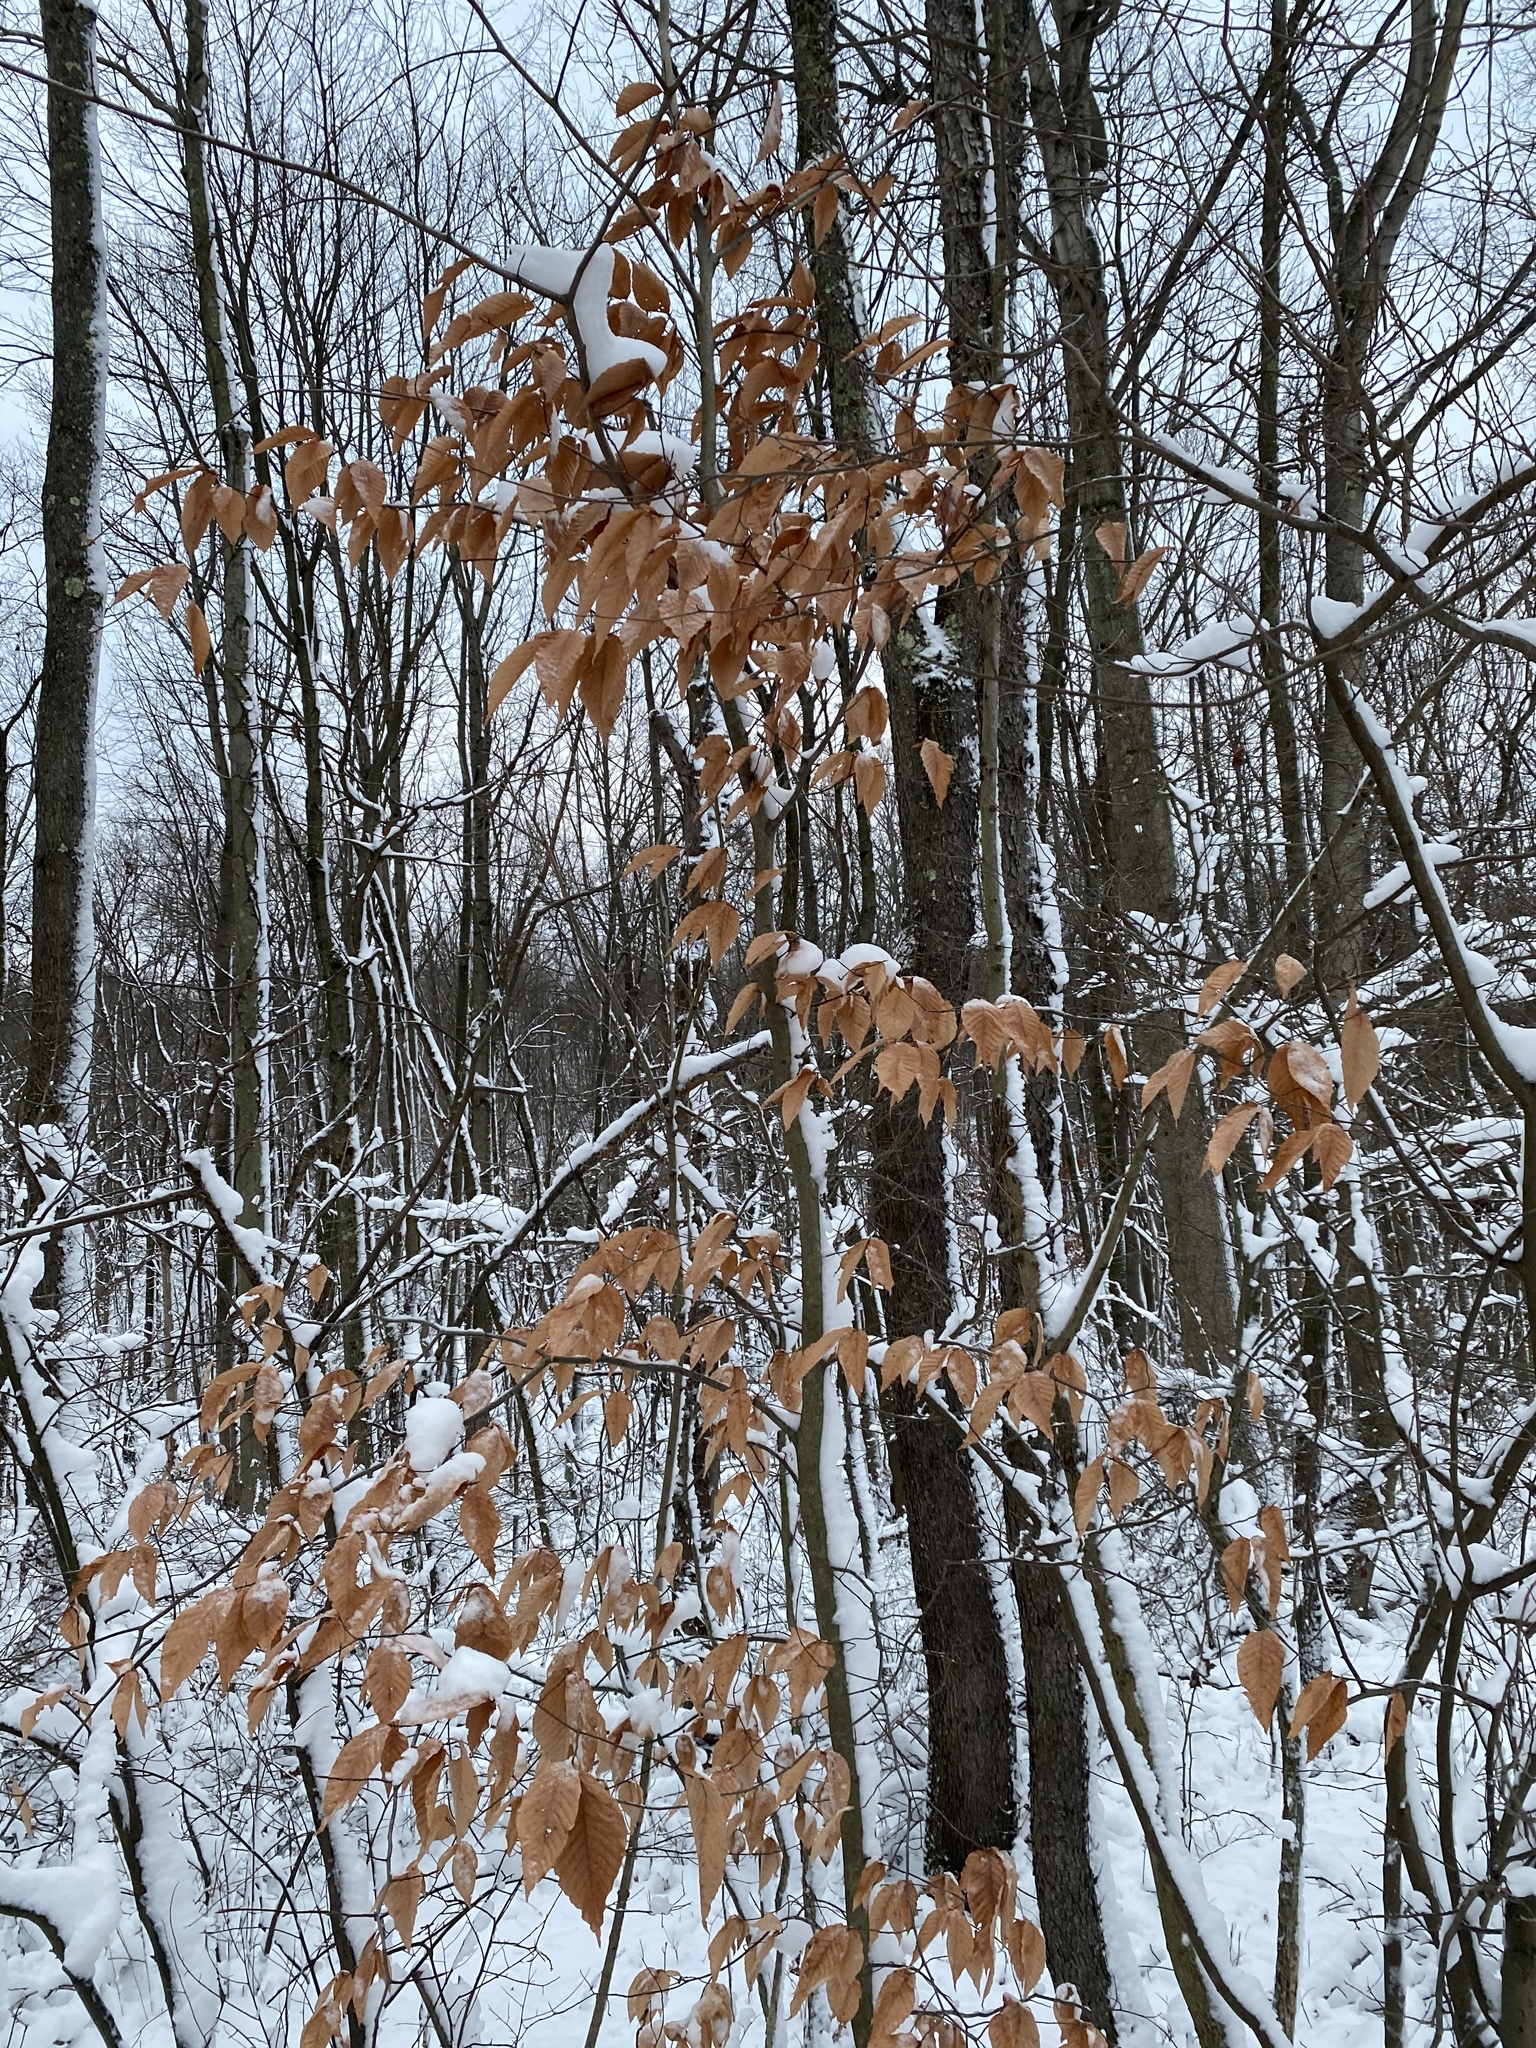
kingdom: Plantae
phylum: Tracheophyta
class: Magnoliopsida
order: Fagales
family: Fagaceae
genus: Fagus
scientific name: Fagus grandifolia
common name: American beech
